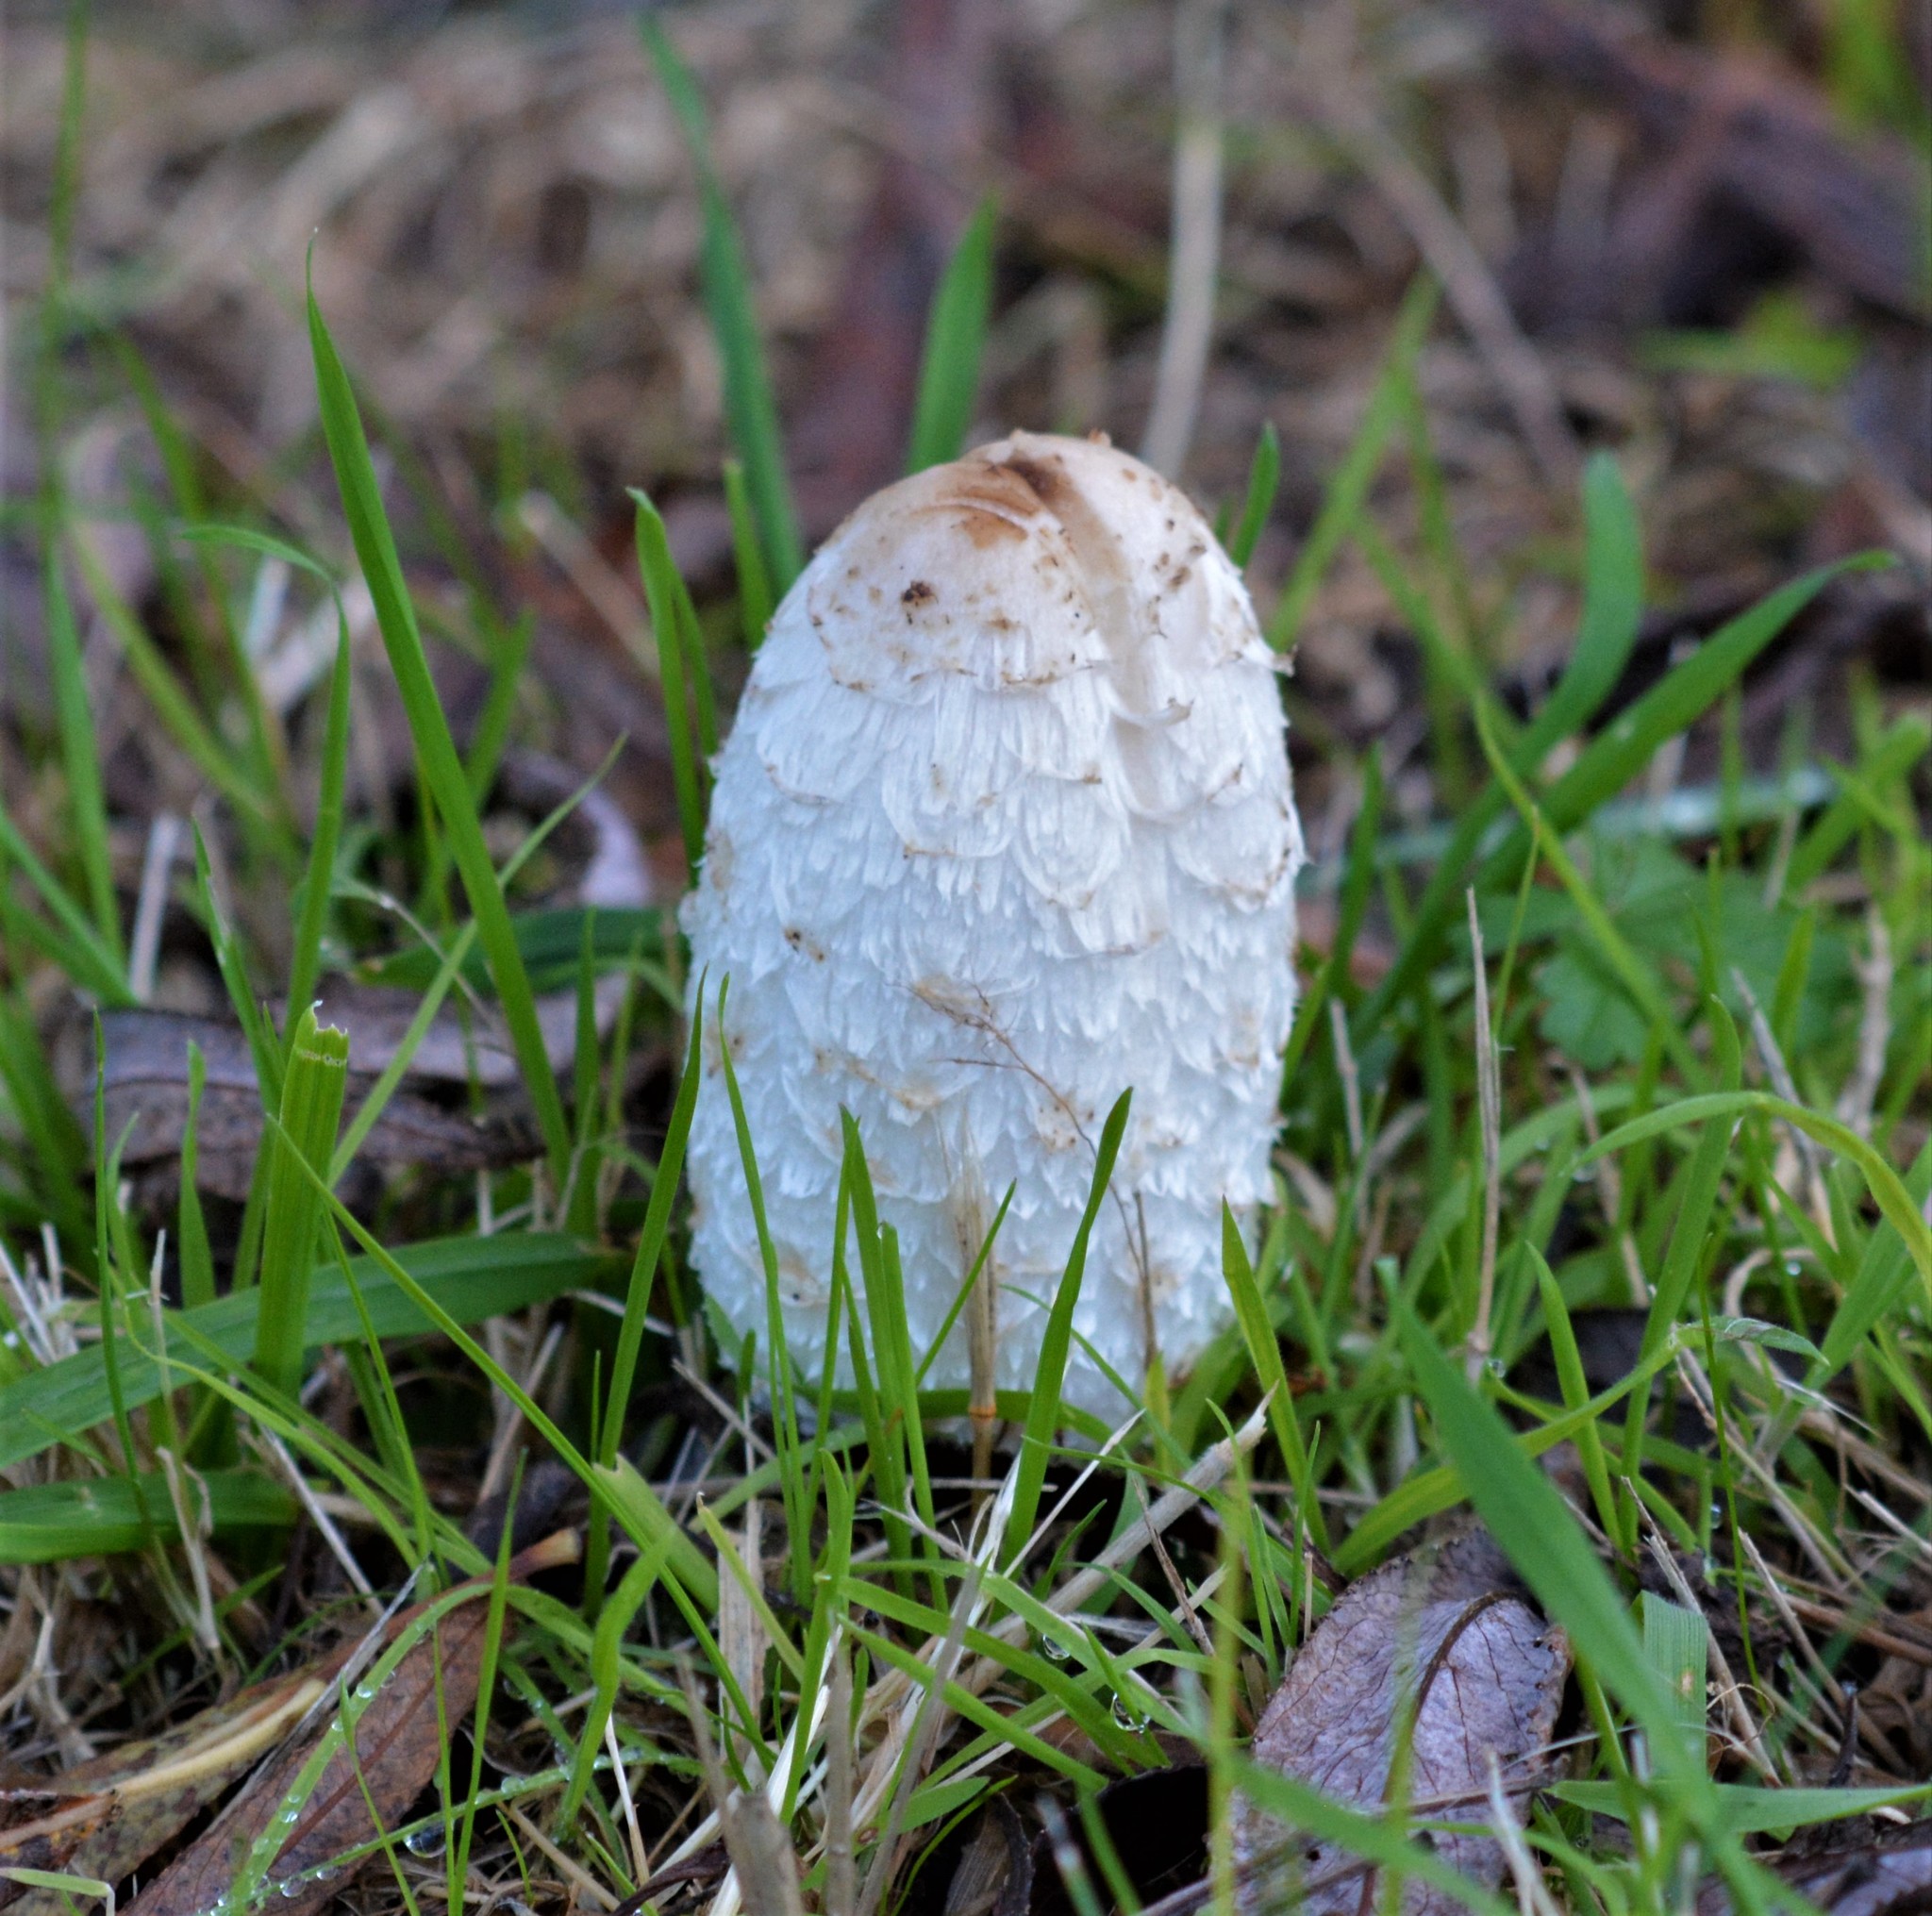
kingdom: Fungi
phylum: Basidiomycota
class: Agaricomycetes
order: Agaricales
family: Agaricaceae
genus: Coprinus
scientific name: Coprinus comatus
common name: Lawyer's wig
